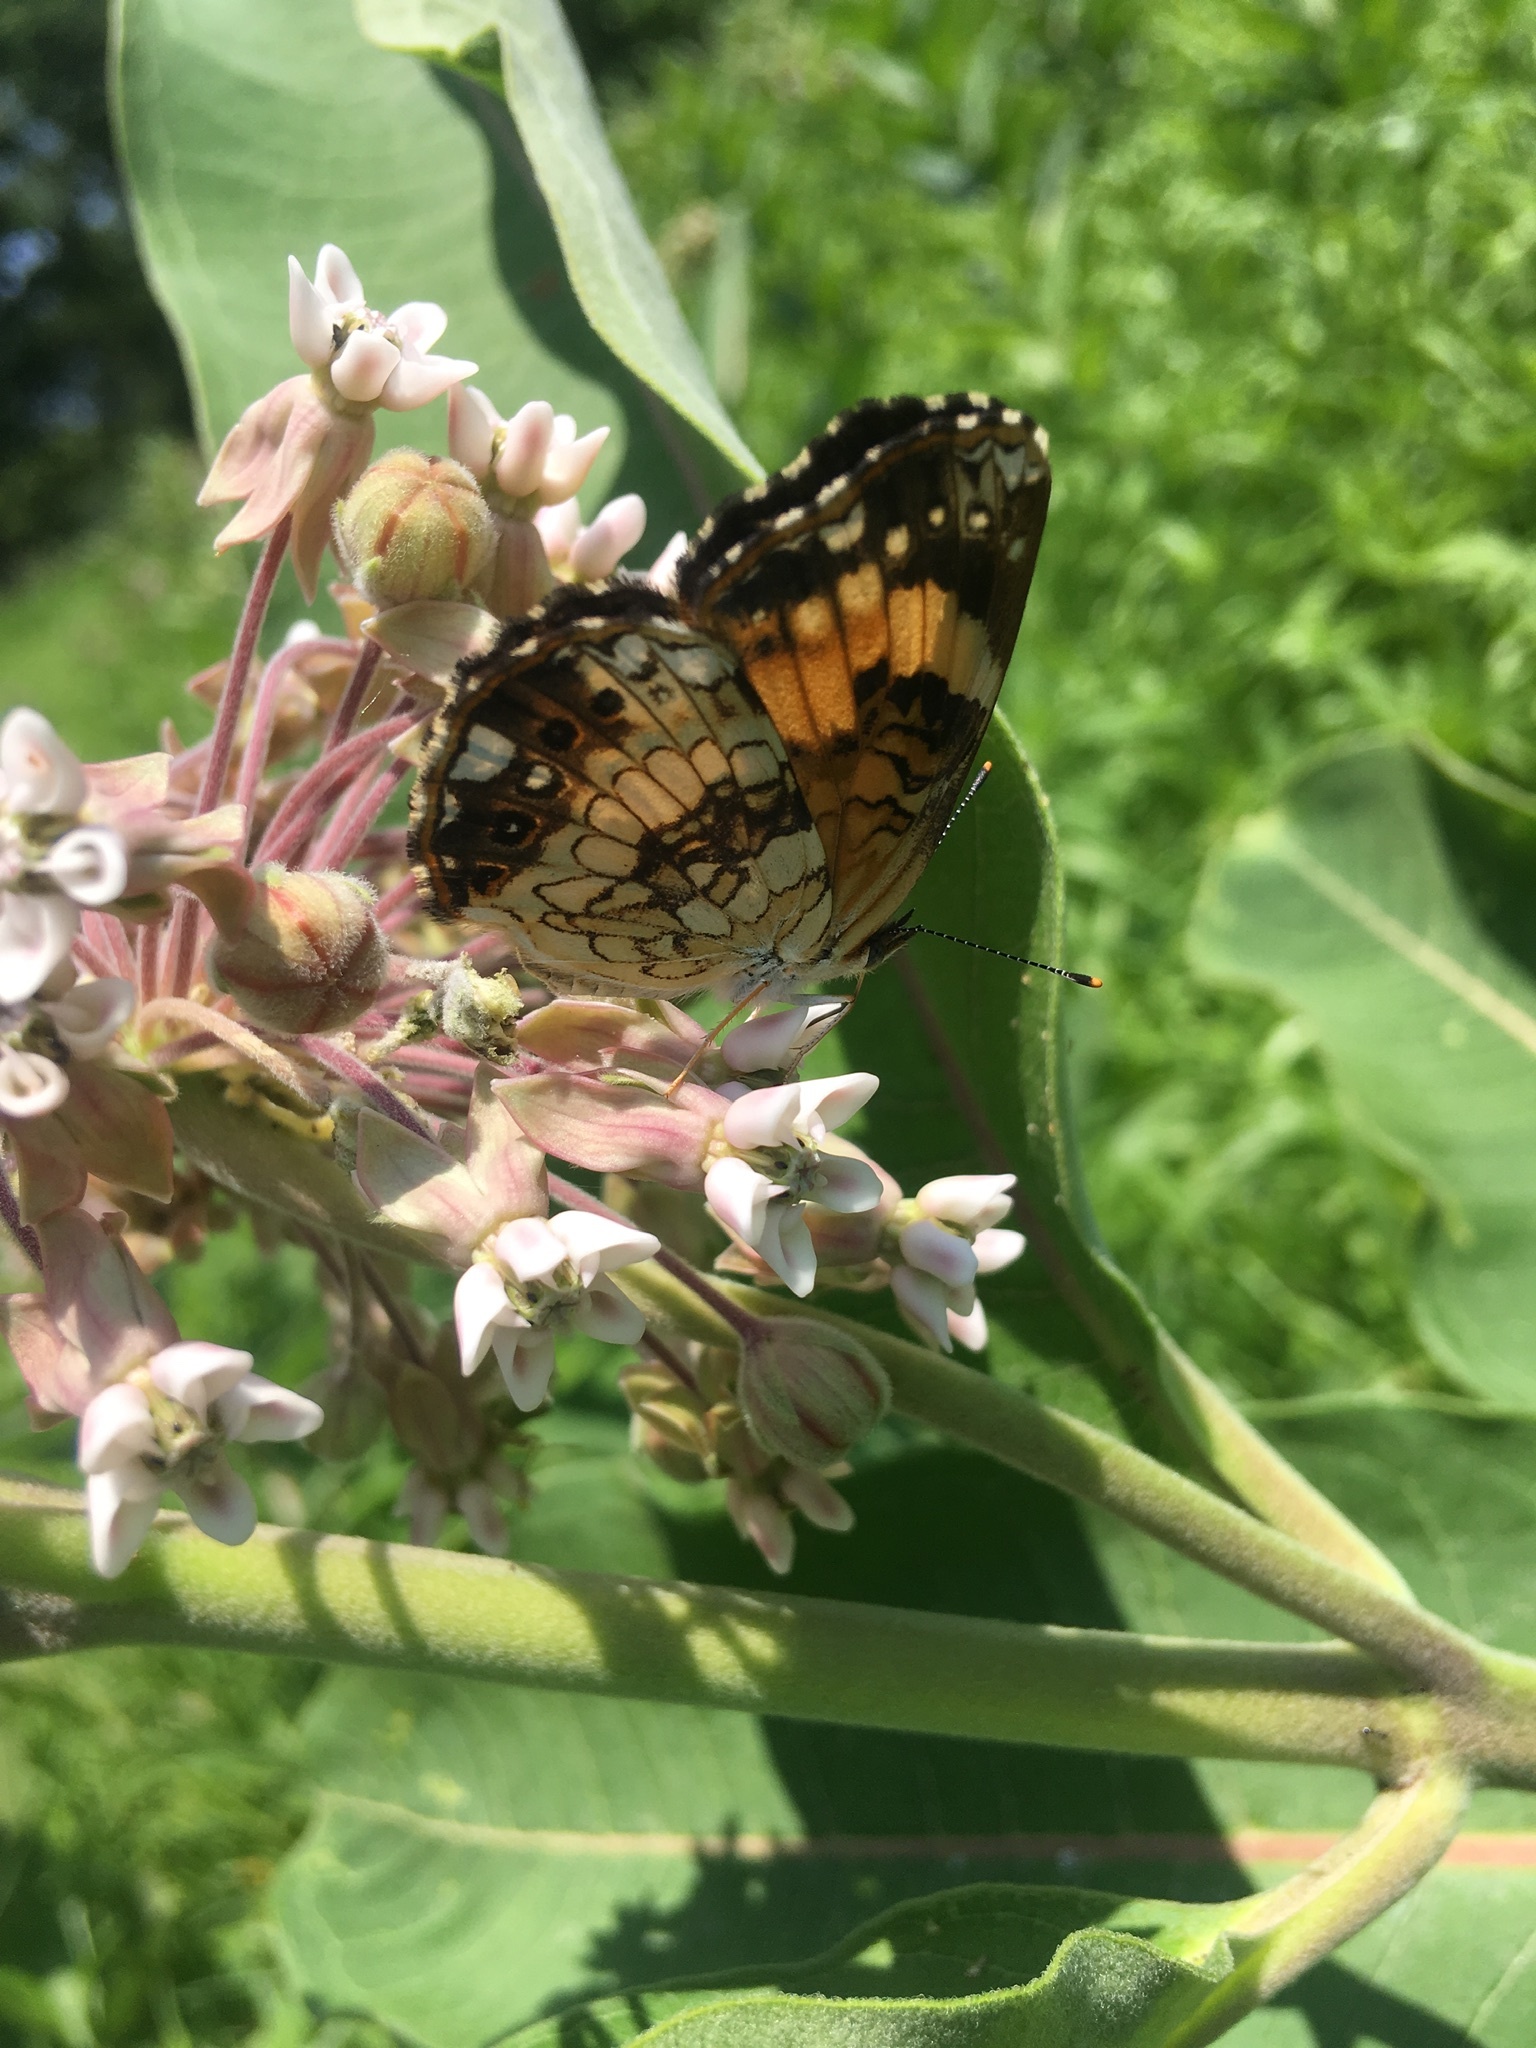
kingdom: Animalia
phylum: Arthropoda
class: Insecta
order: Lepidoptera
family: Nymphalidae
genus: Chlosyne
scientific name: Chlosyne nycteis
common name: Silvery checkerspot
